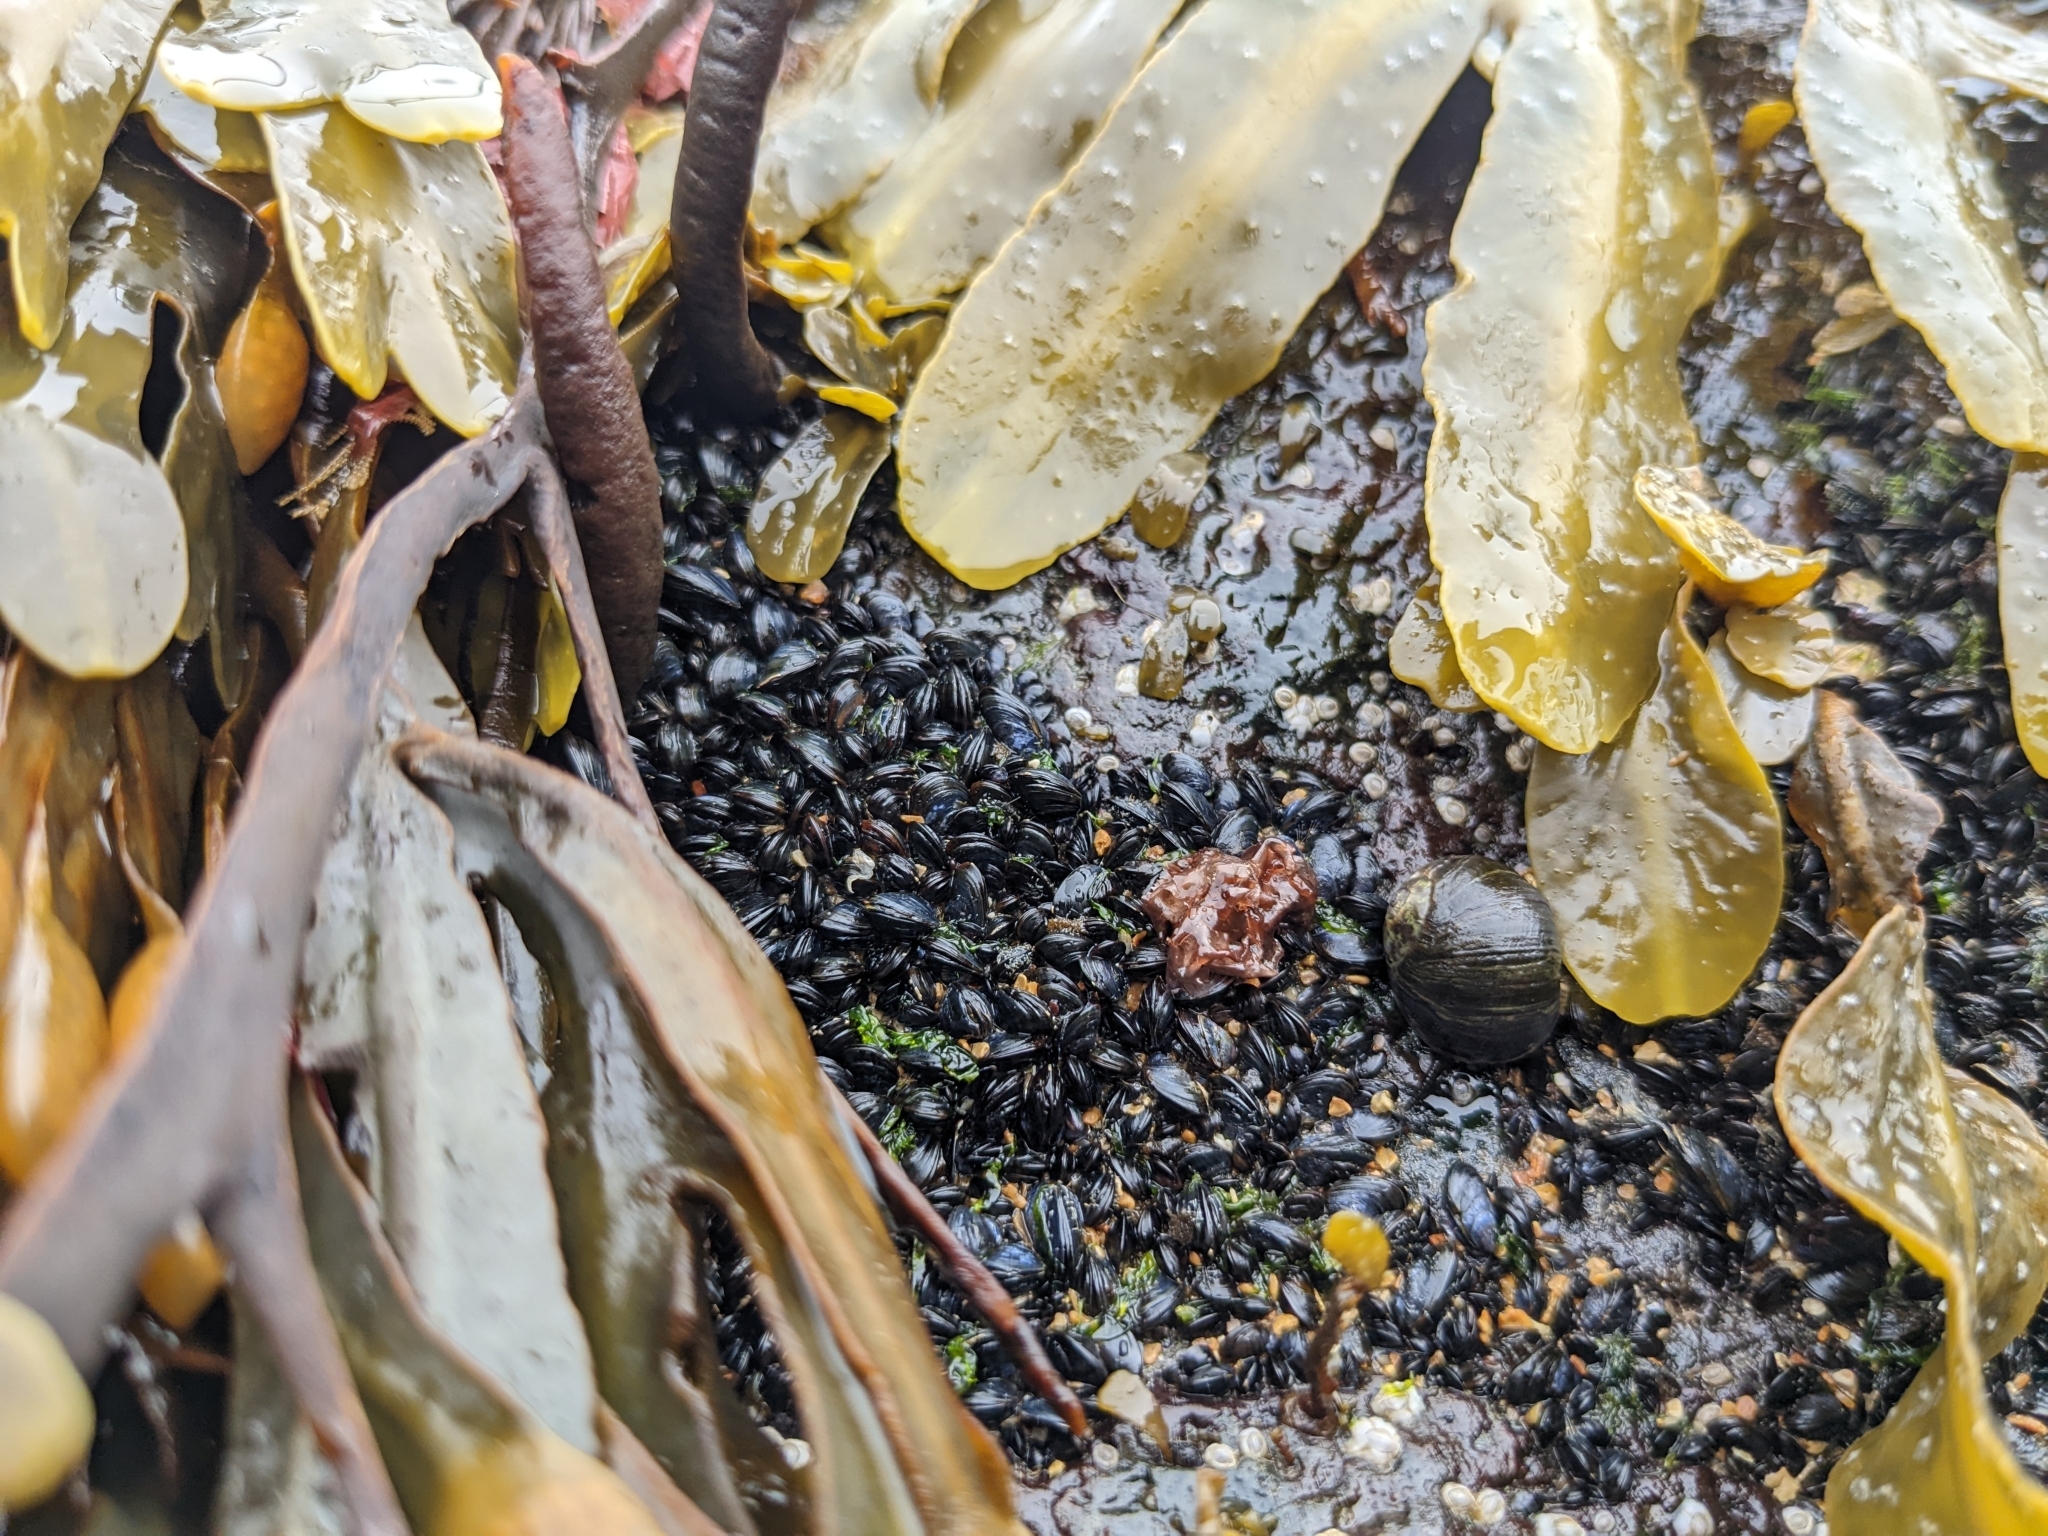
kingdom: Animalia
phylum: Mollusca
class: Bivalvia
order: Mytilida
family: Mytilidae
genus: Mytilus
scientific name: Mytilus edulis
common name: Blue mussel
